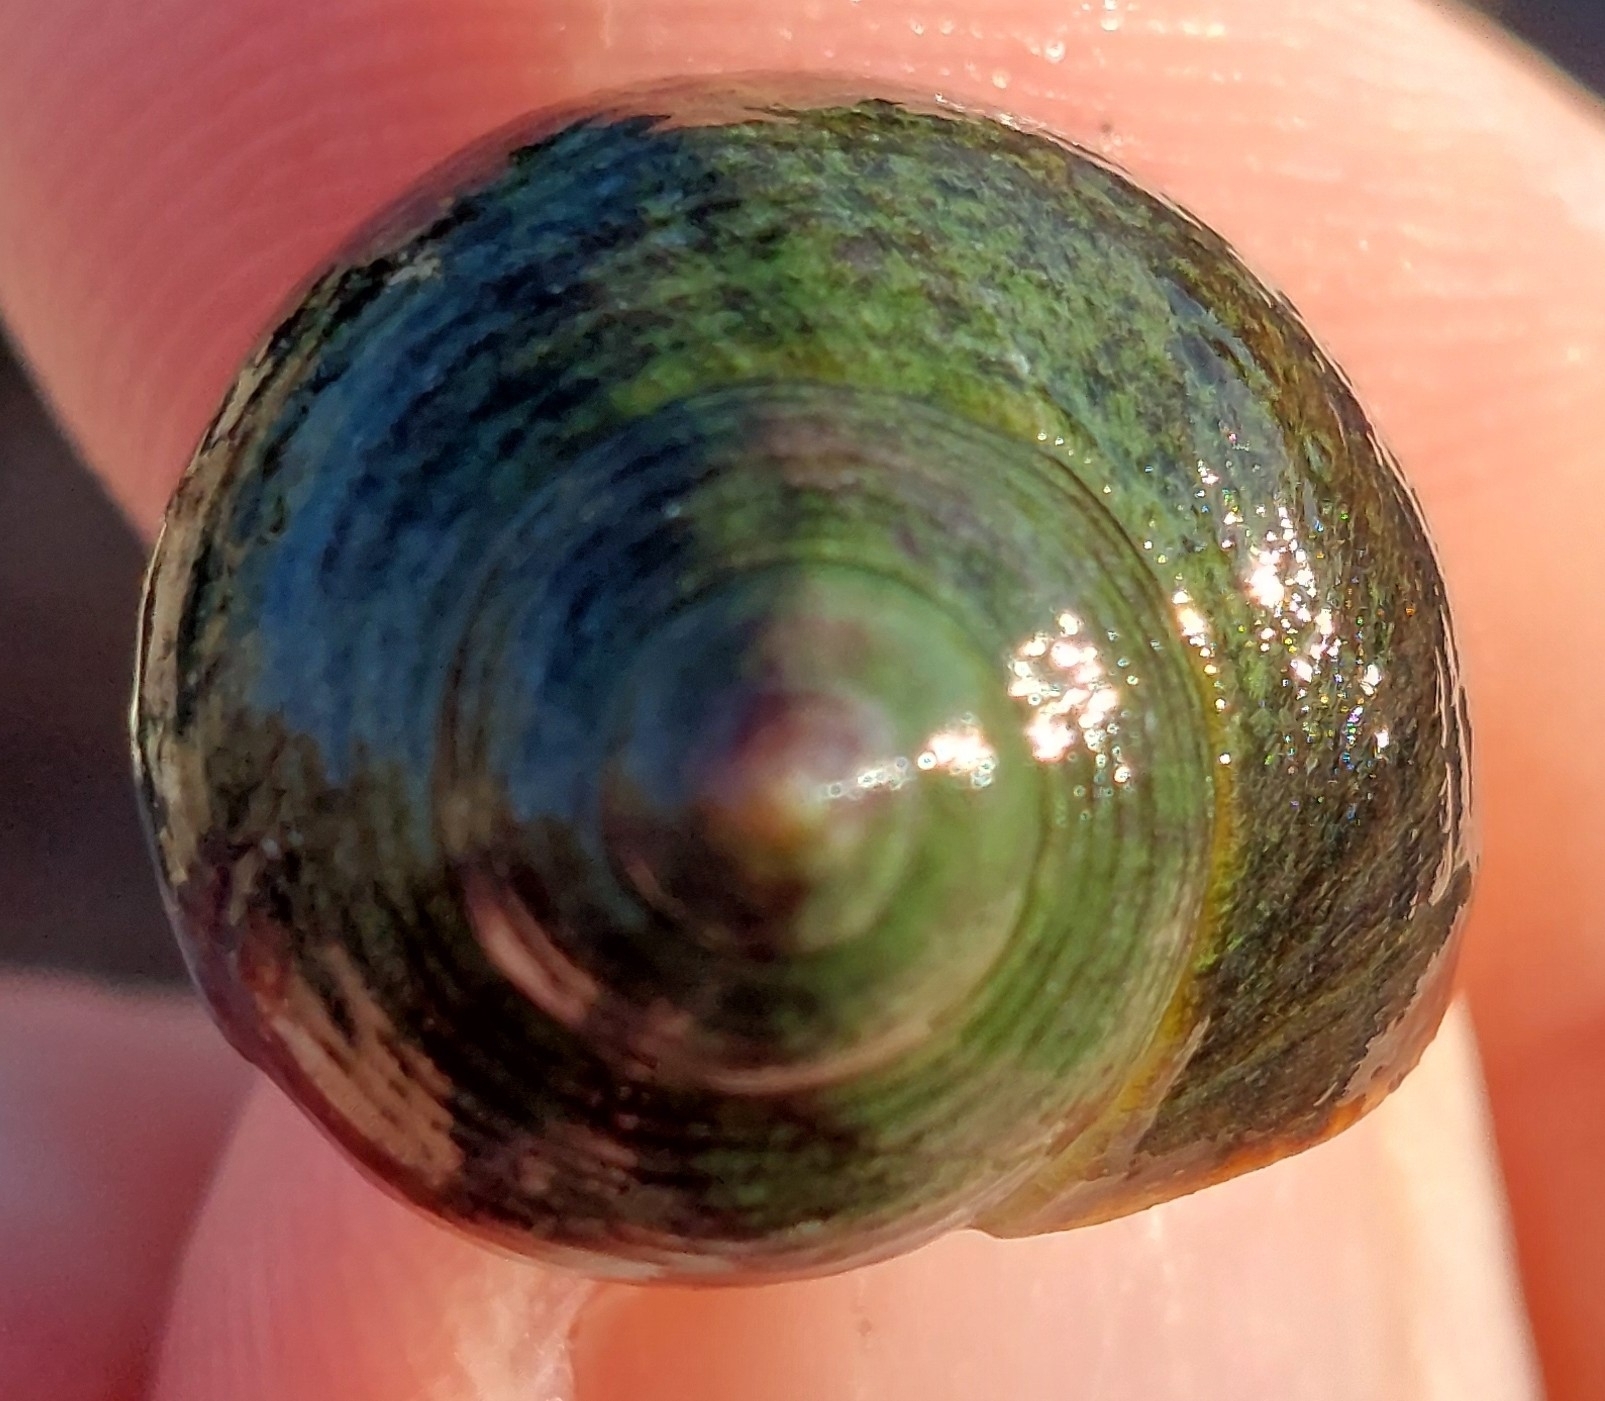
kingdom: Animalia
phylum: Mollusca
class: Gastropoda
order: Littorinimorpha
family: Littorinidae
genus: Littorina
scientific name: Littorina littorea
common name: Common periwinkle
